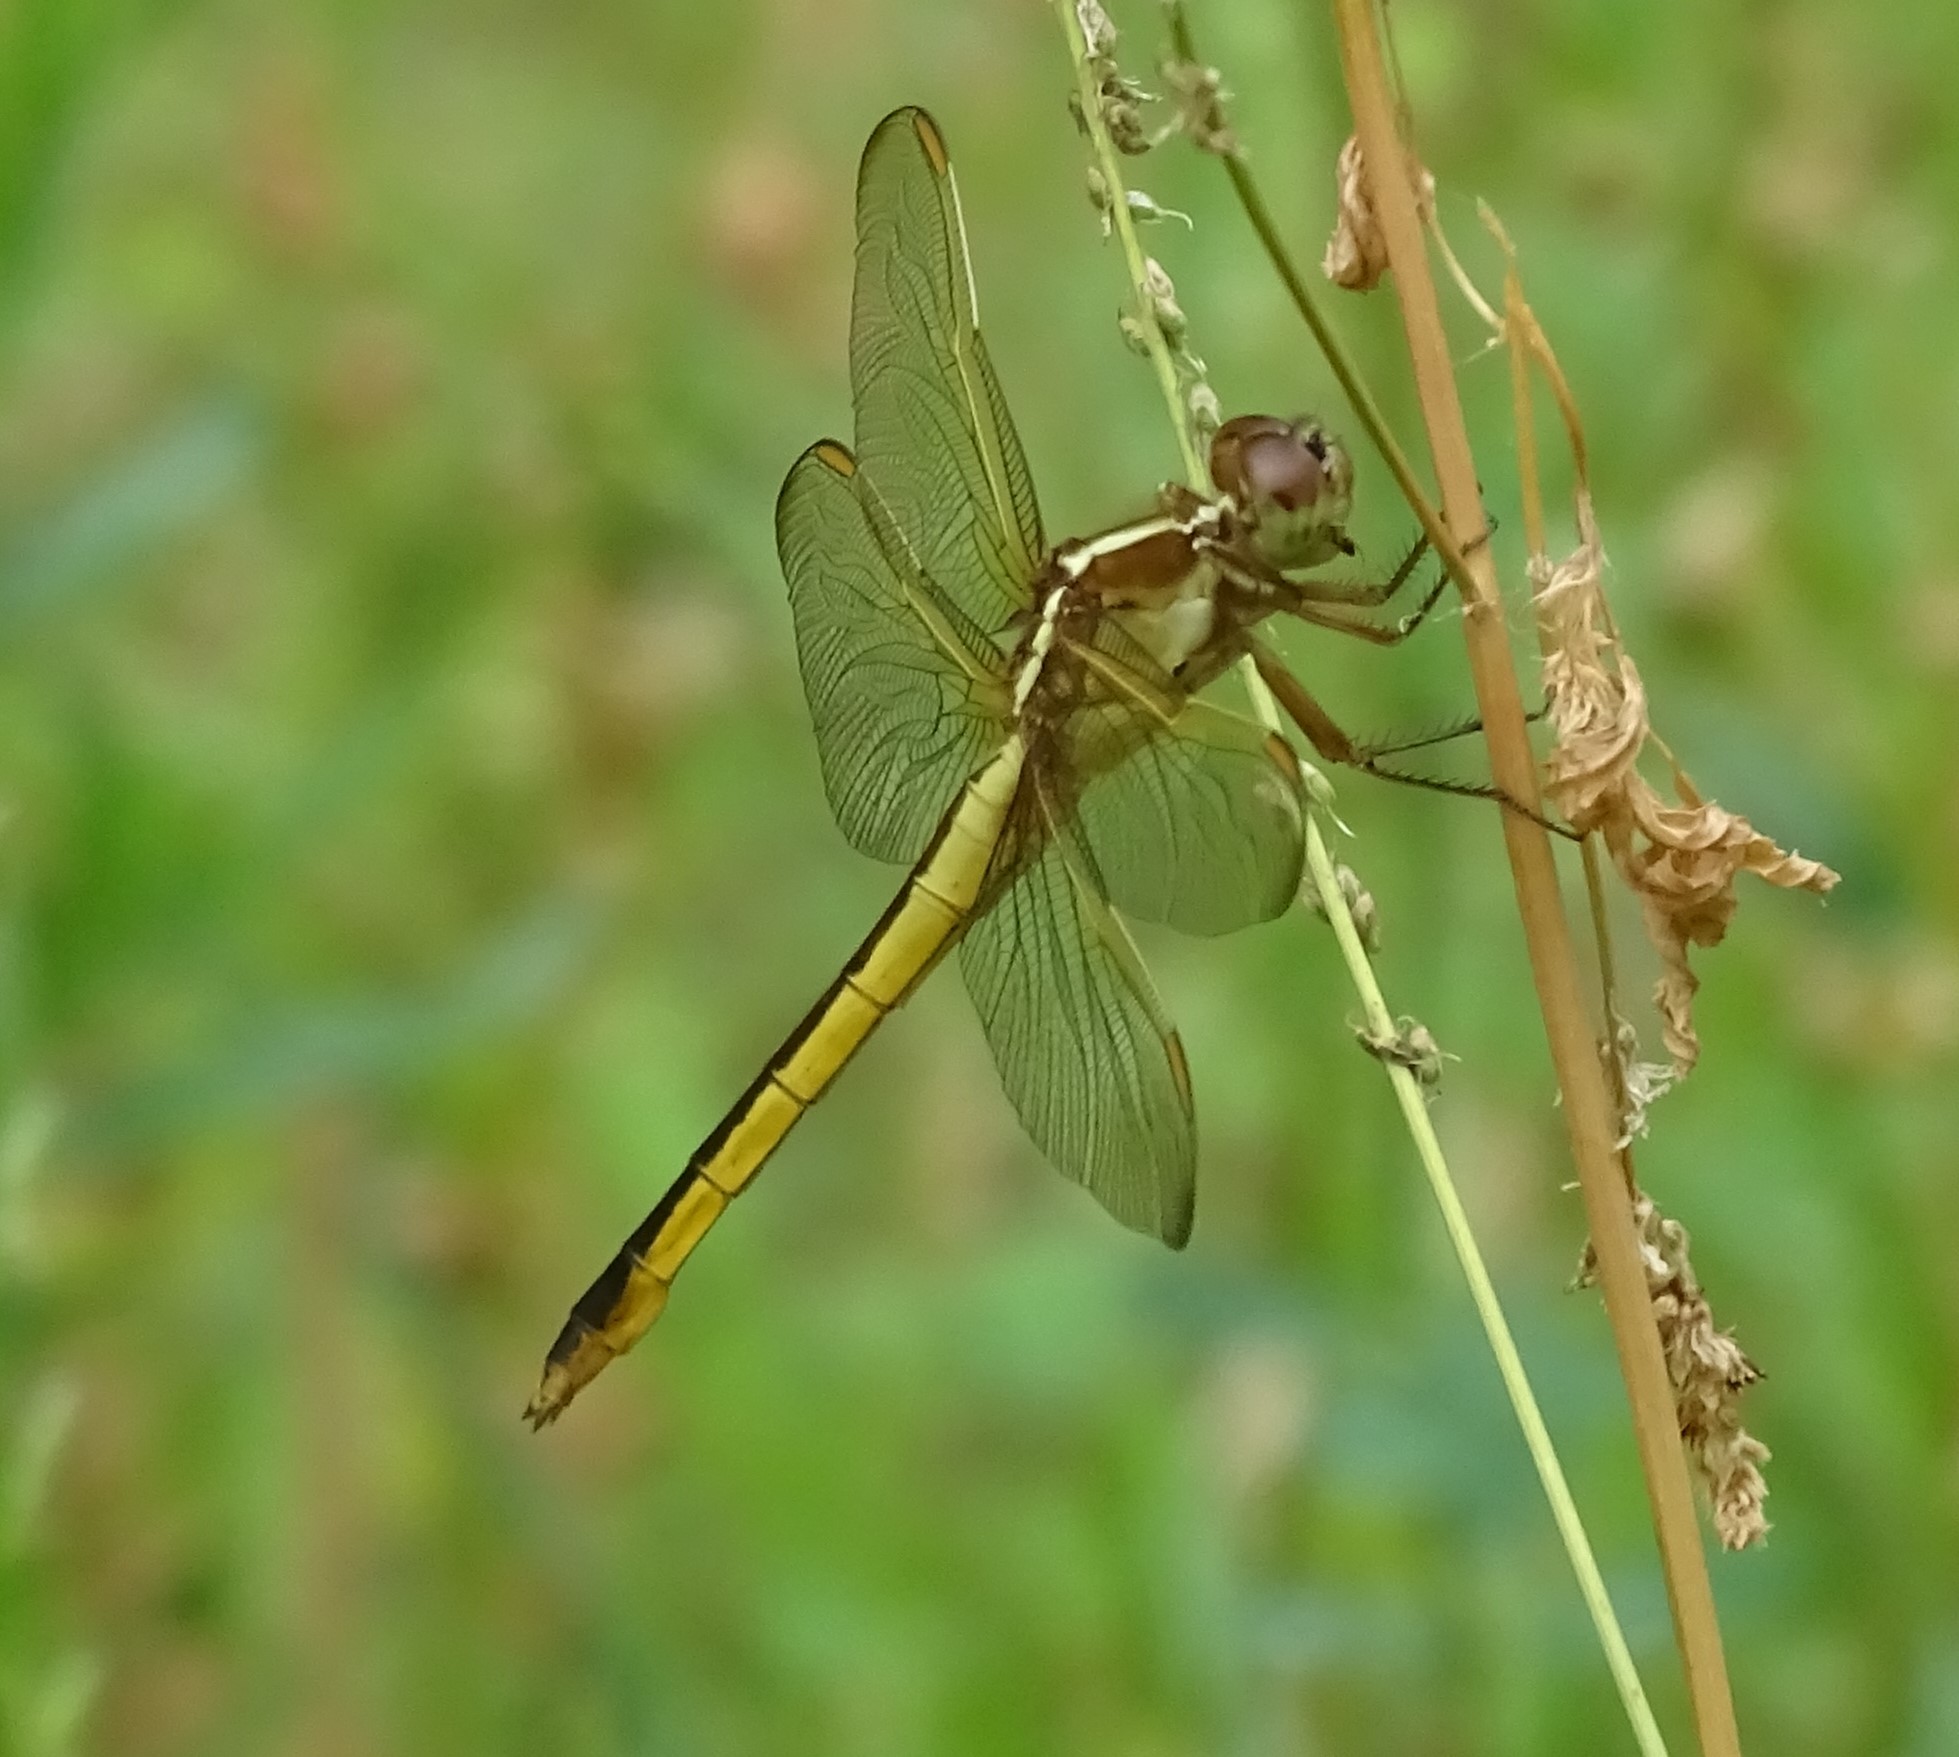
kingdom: Animalia
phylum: Arthropoda
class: Insecta
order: Odonata
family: Libellulidae
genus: Libellula
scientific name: Libellula needhami
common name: Needham's skimmer
